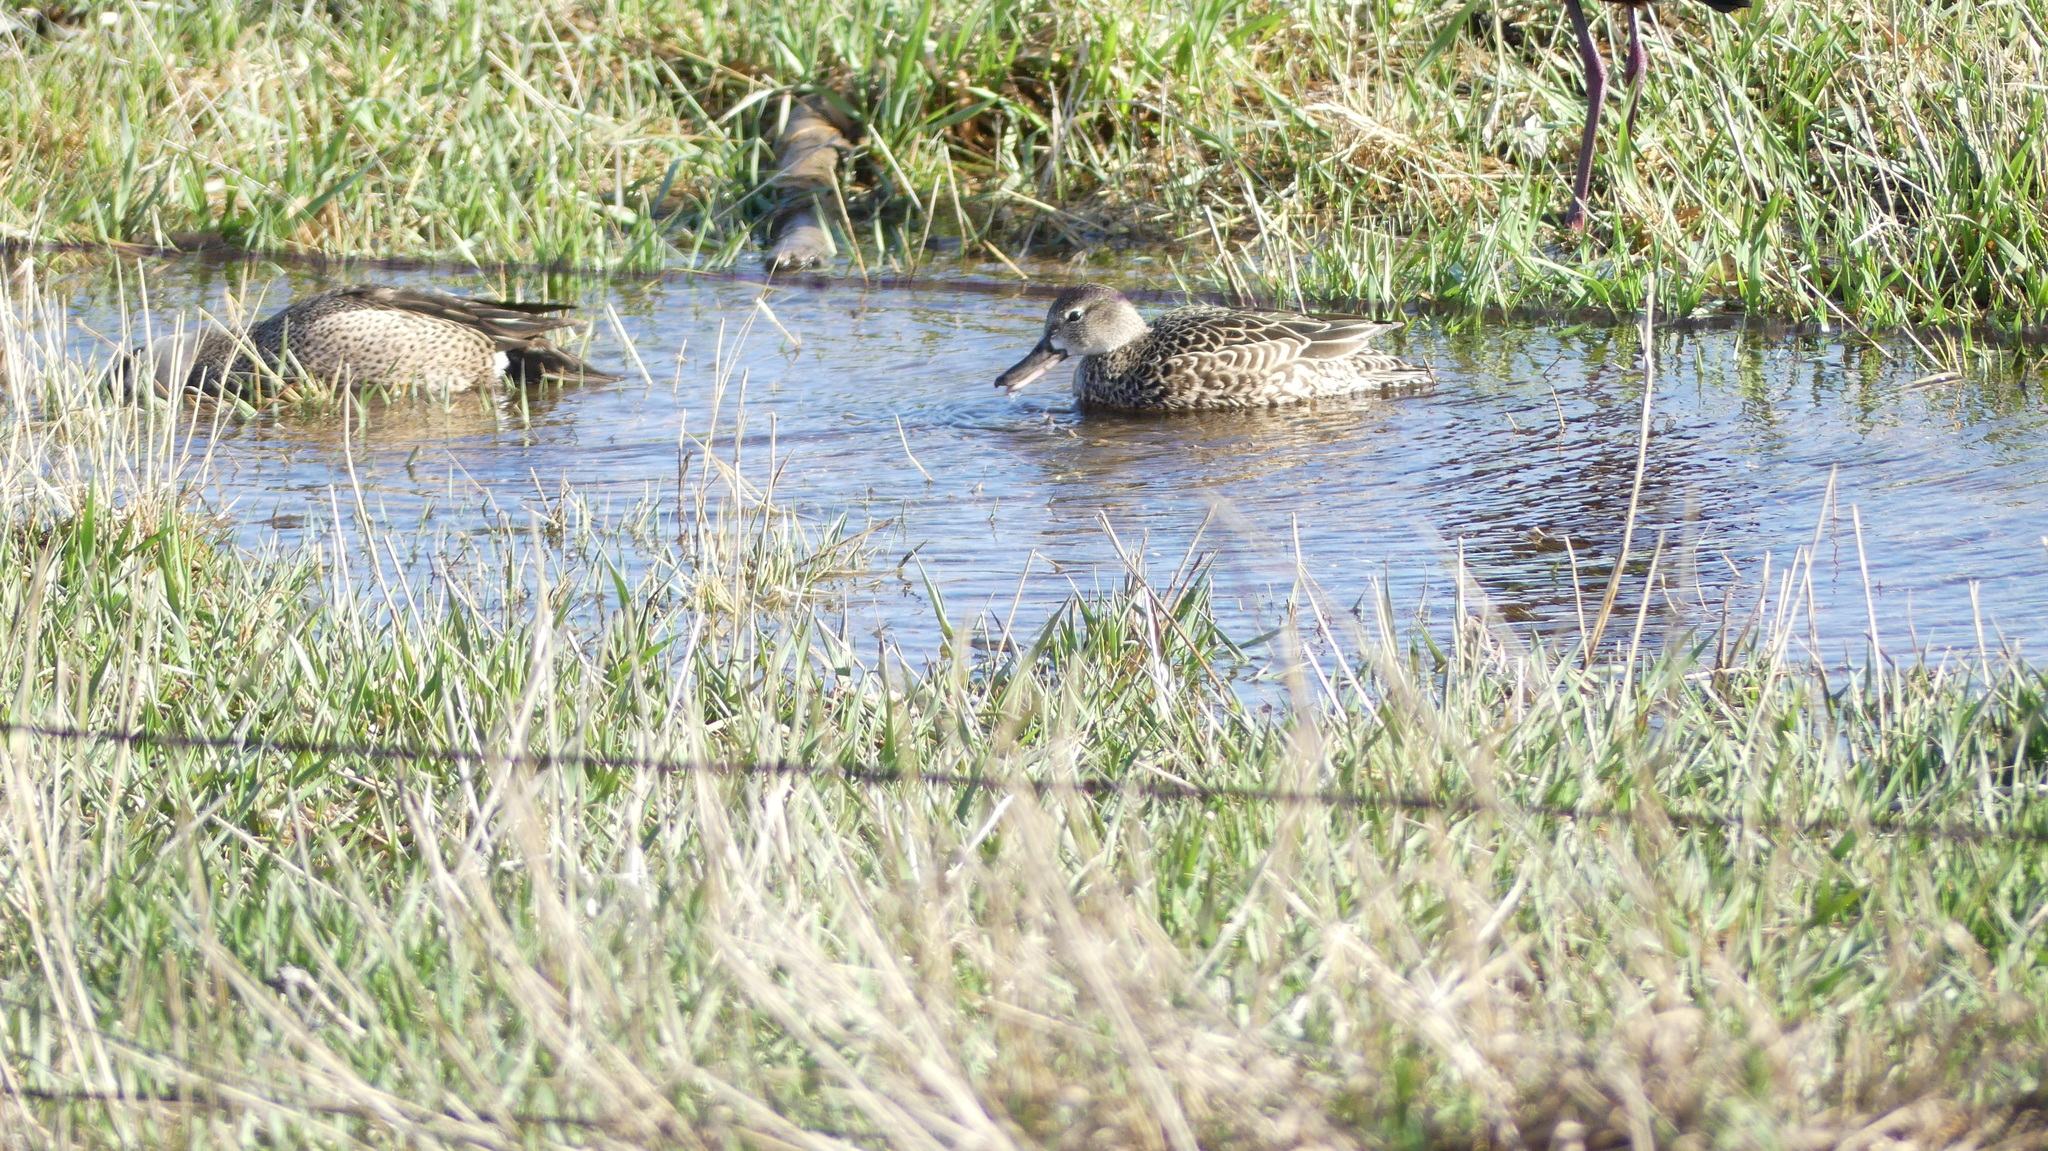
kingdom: Animalia
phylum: Chordata
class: Aves
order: Anseriformes
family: Anatidae
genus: Spatula
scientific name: Spatula discors
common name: Blue-winged teal
